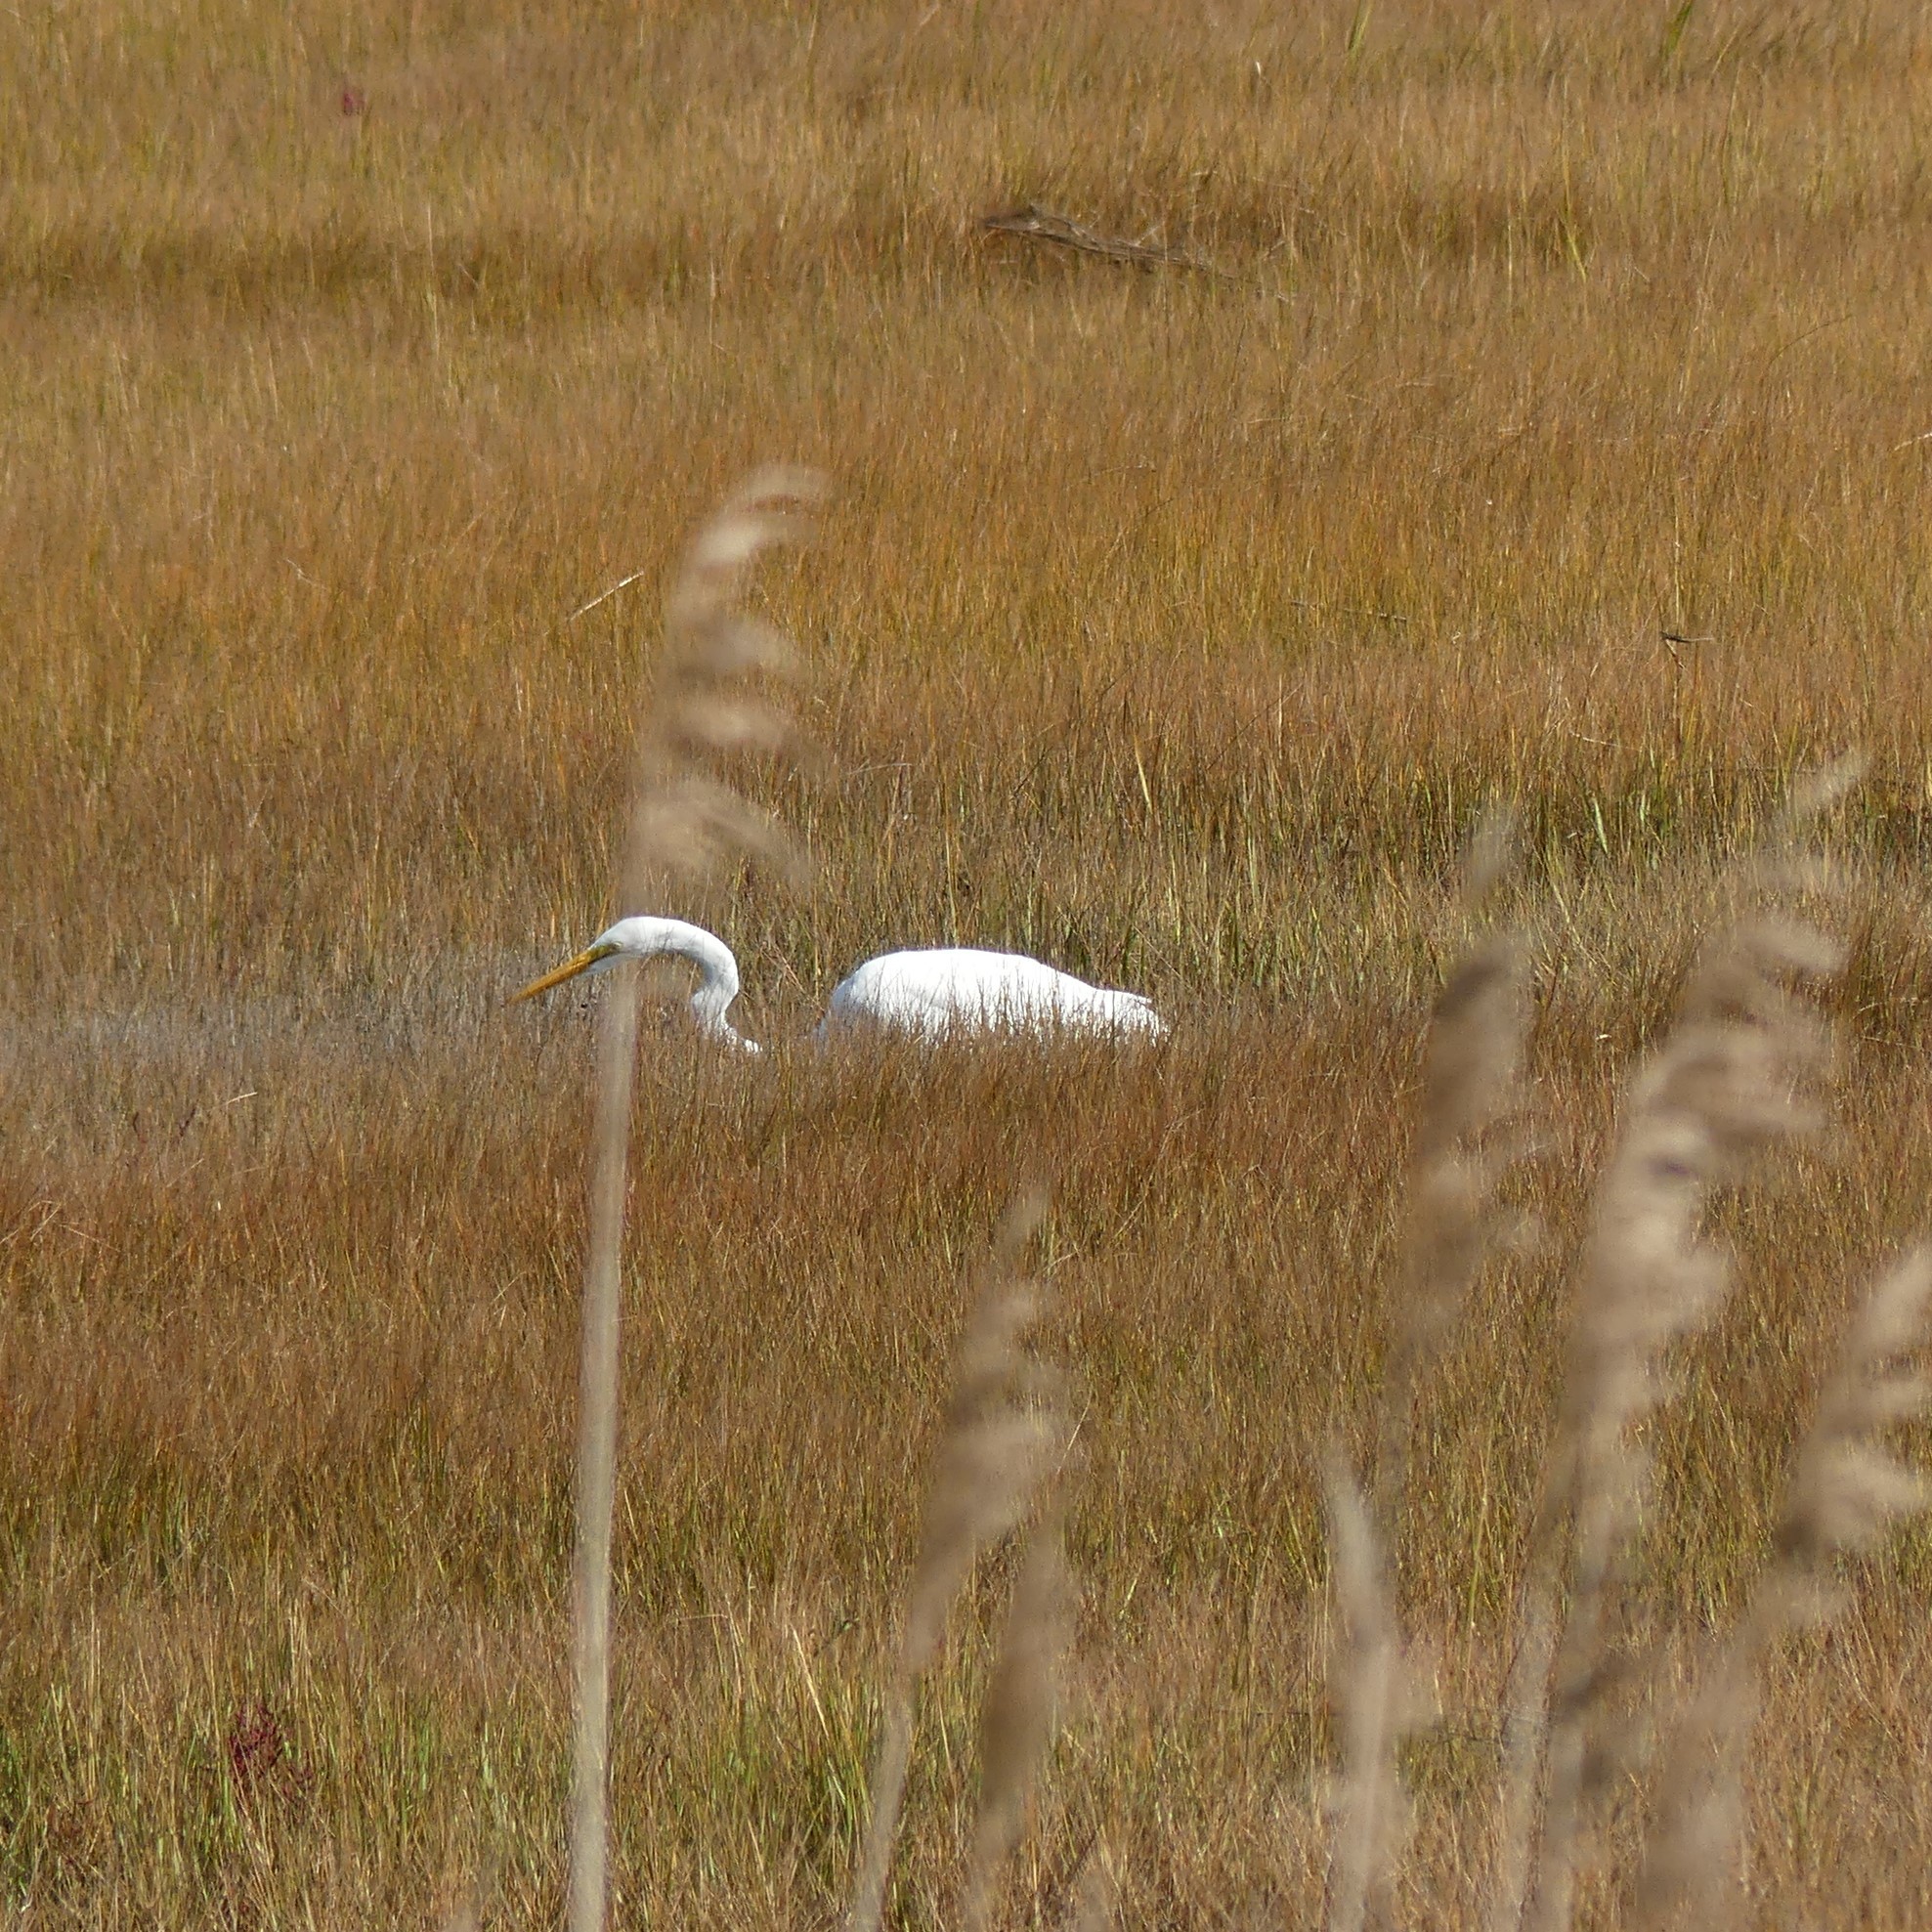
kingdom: Animalia
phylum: Chordata
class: Aves
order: Pelecaniformes
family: Ardeidae
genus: Ardea
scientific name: Ardea alba
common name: Great egret
